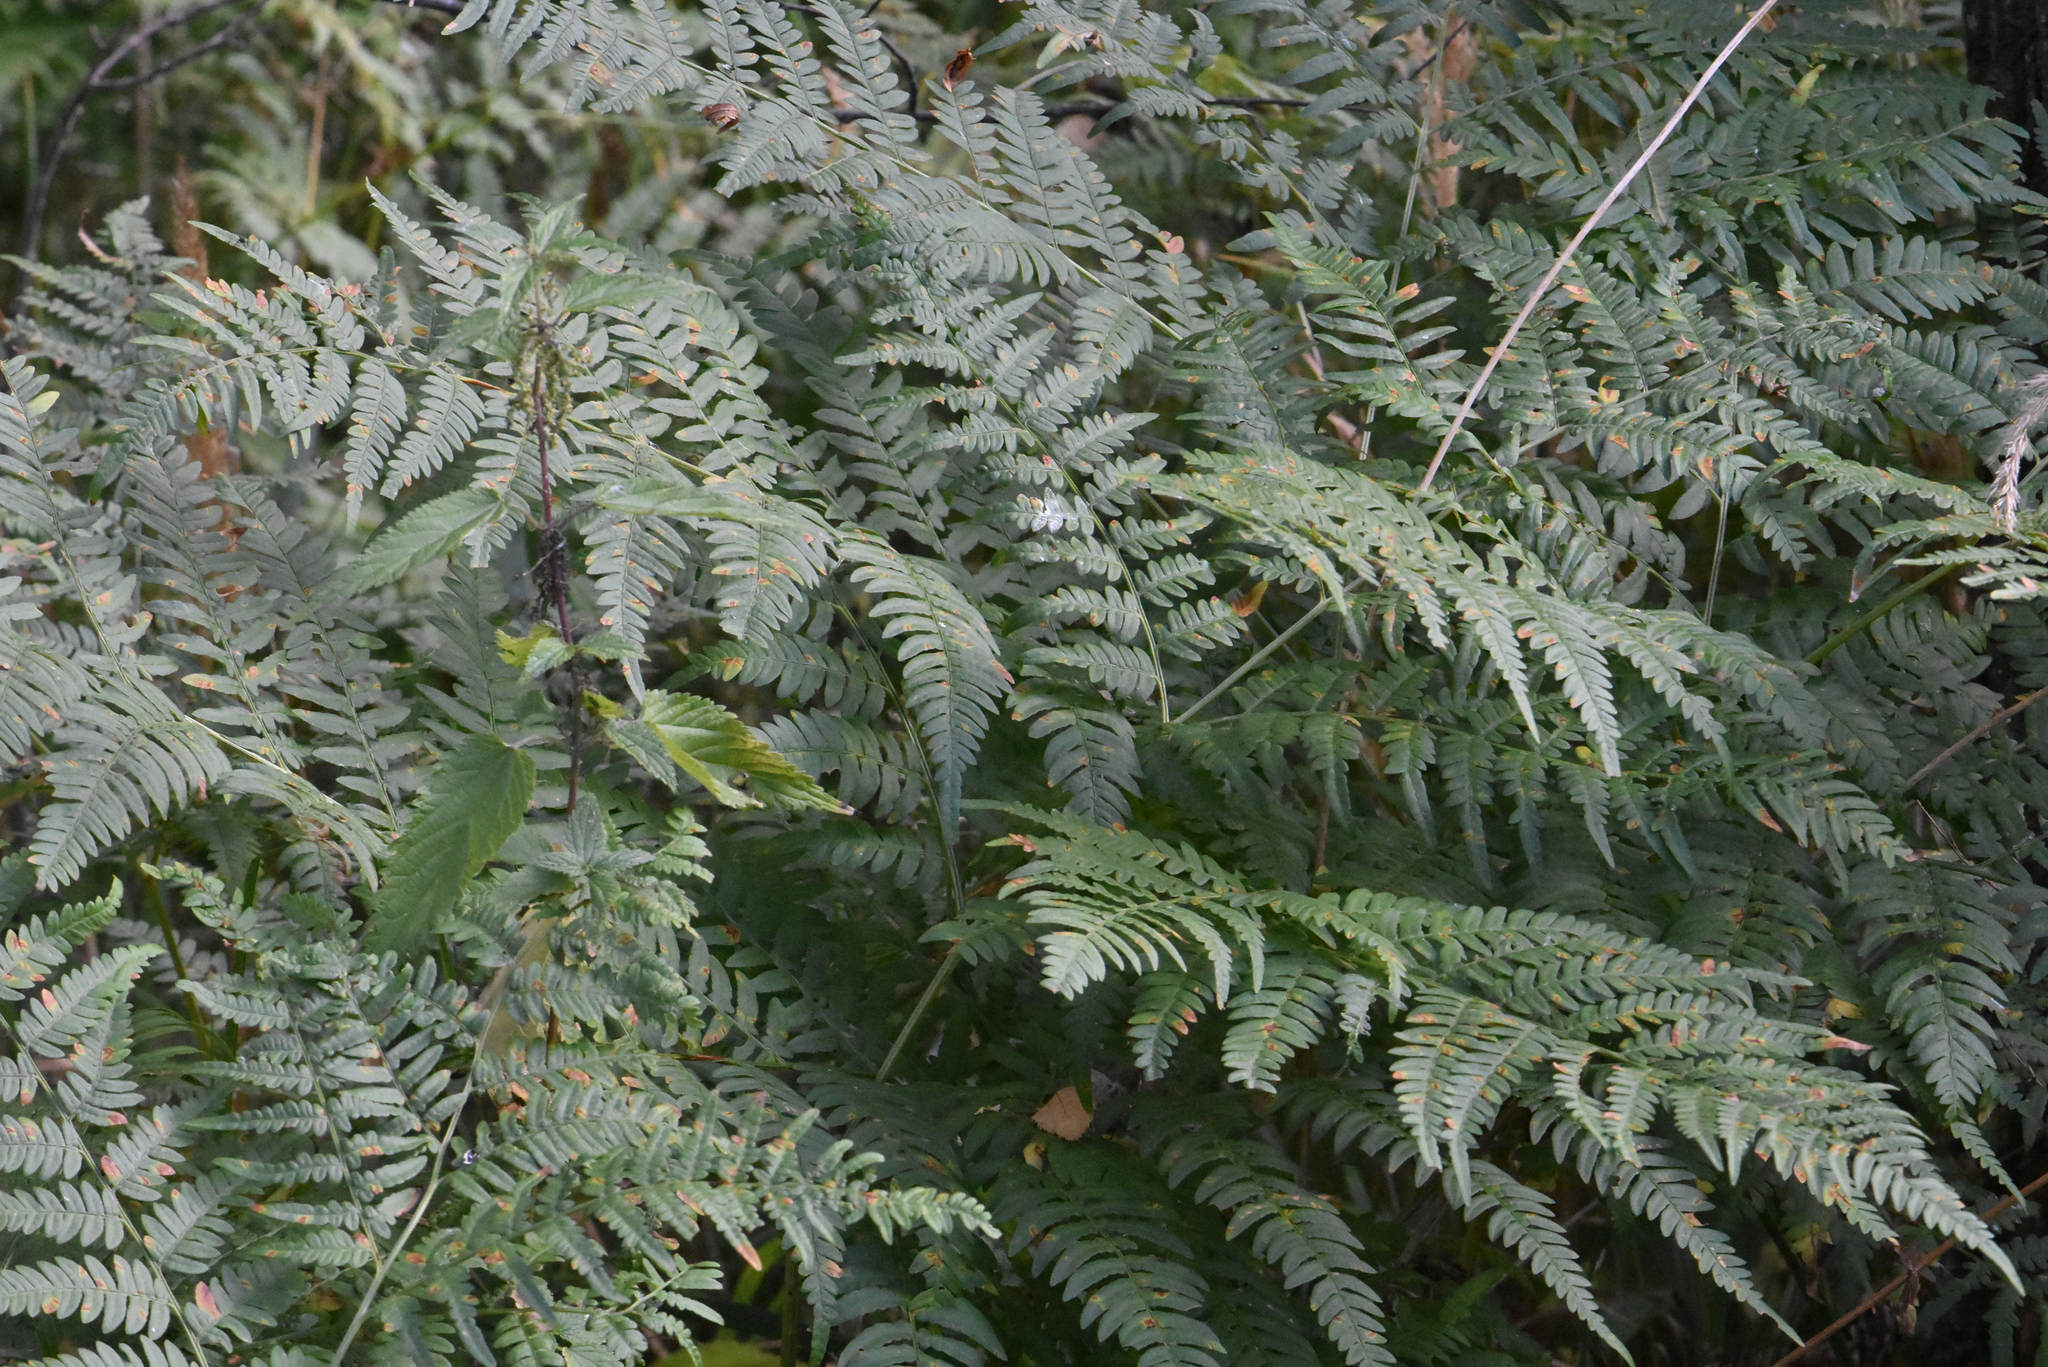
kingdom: Plantae
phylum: Tracheophyta
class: Polypodiopsida
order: Polypodiales
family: Dennstaedtiaceae
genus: Pteridium
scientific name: Pteridium aquilinum
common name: Bracken
